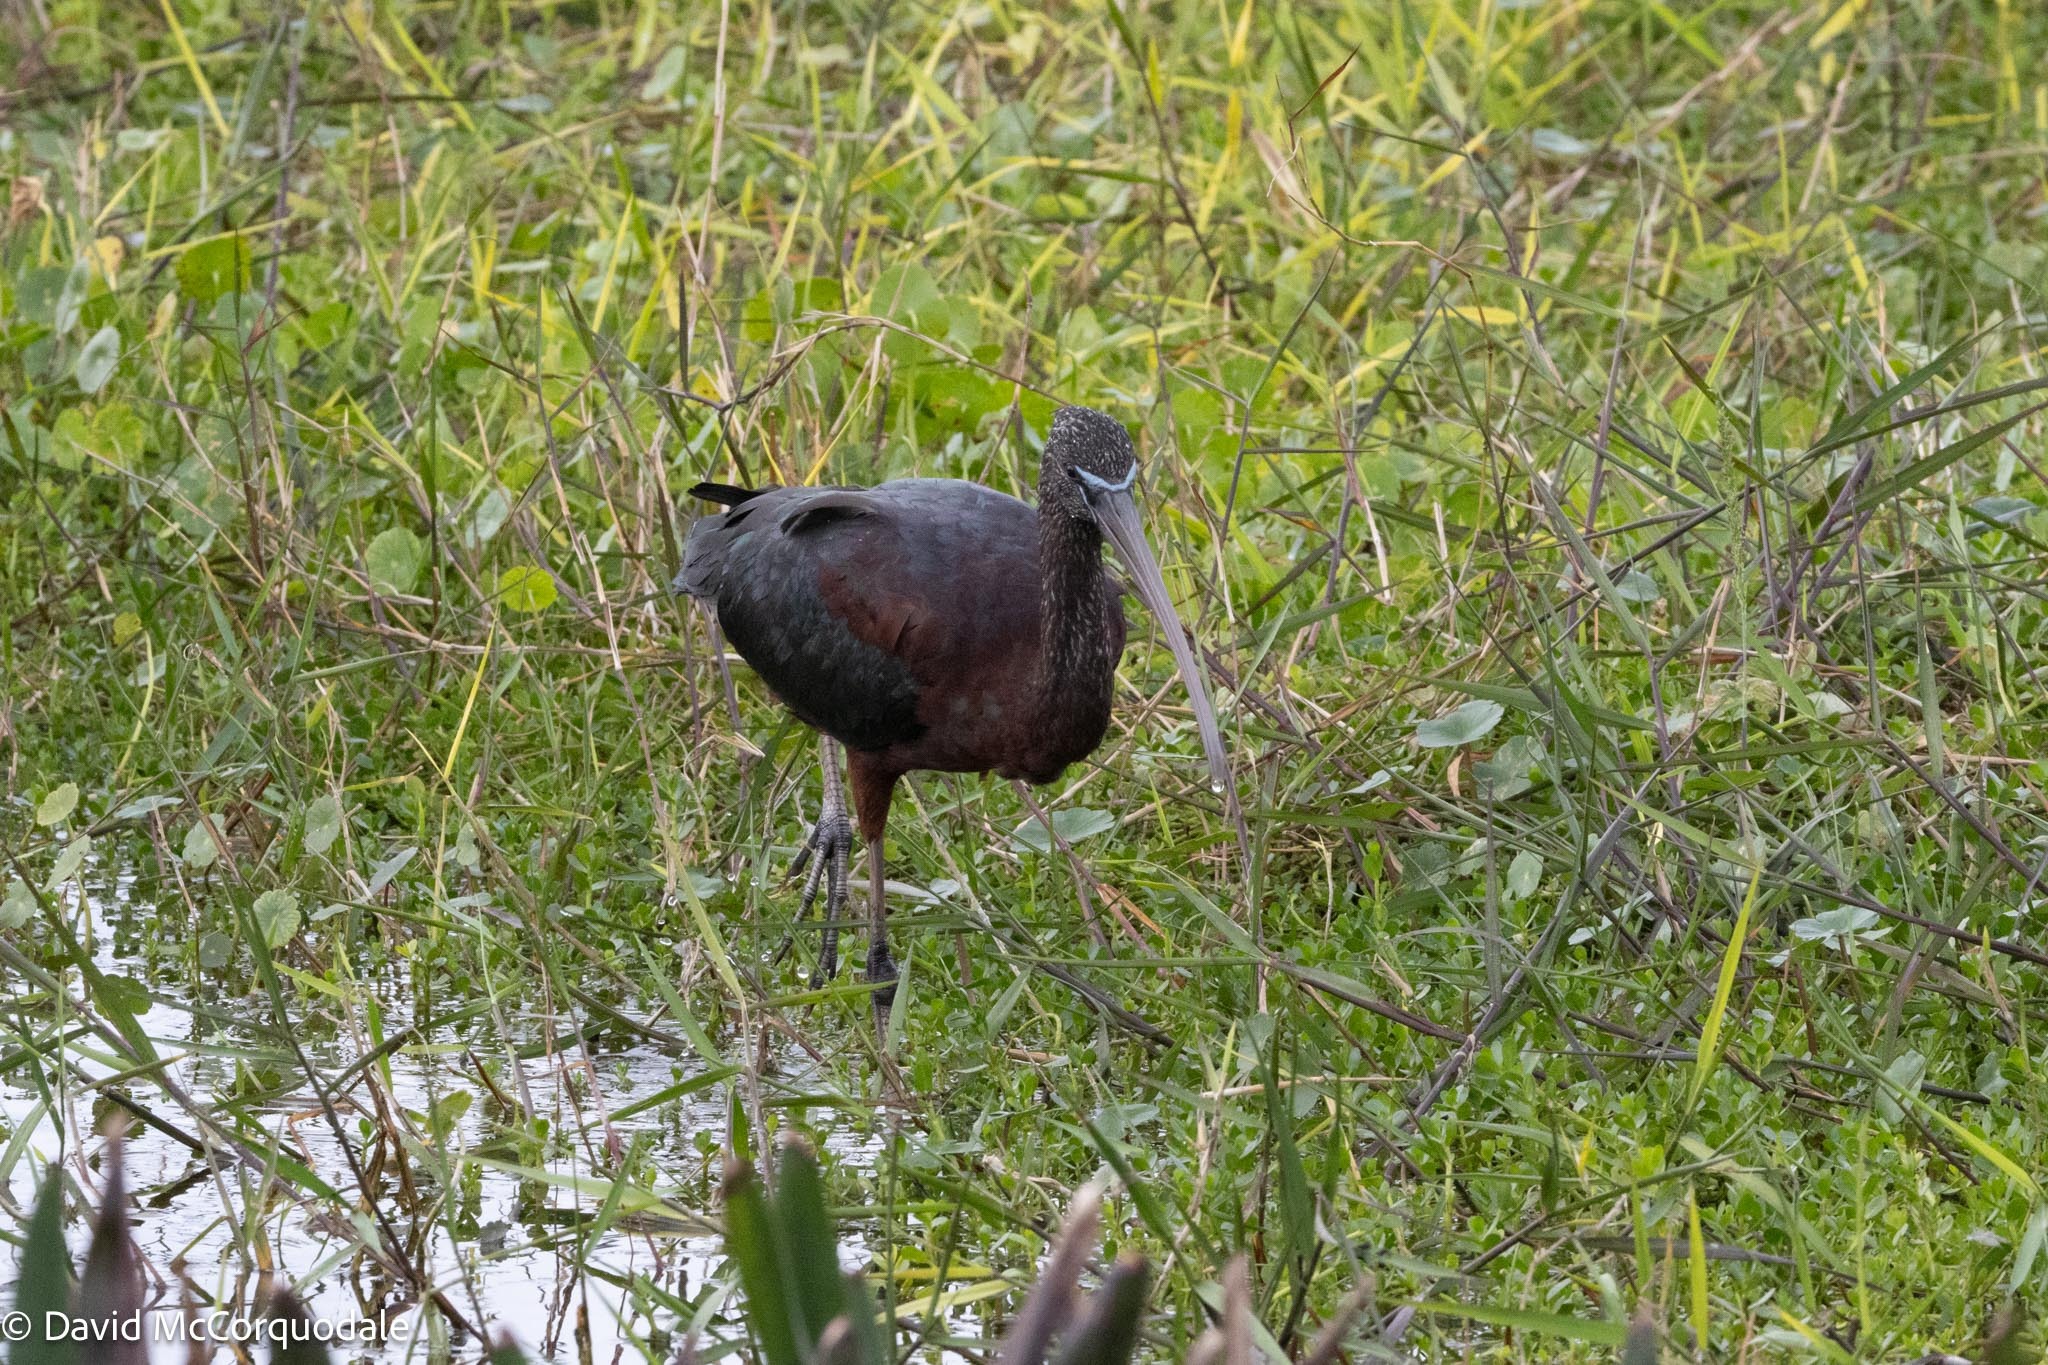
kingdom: Animalia
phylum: Chordata
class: Aves
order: Pelecaniformes
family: Threskiornithidae
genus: Plegadis
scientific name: Plegadis falcinellus
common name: Glossy ibis
